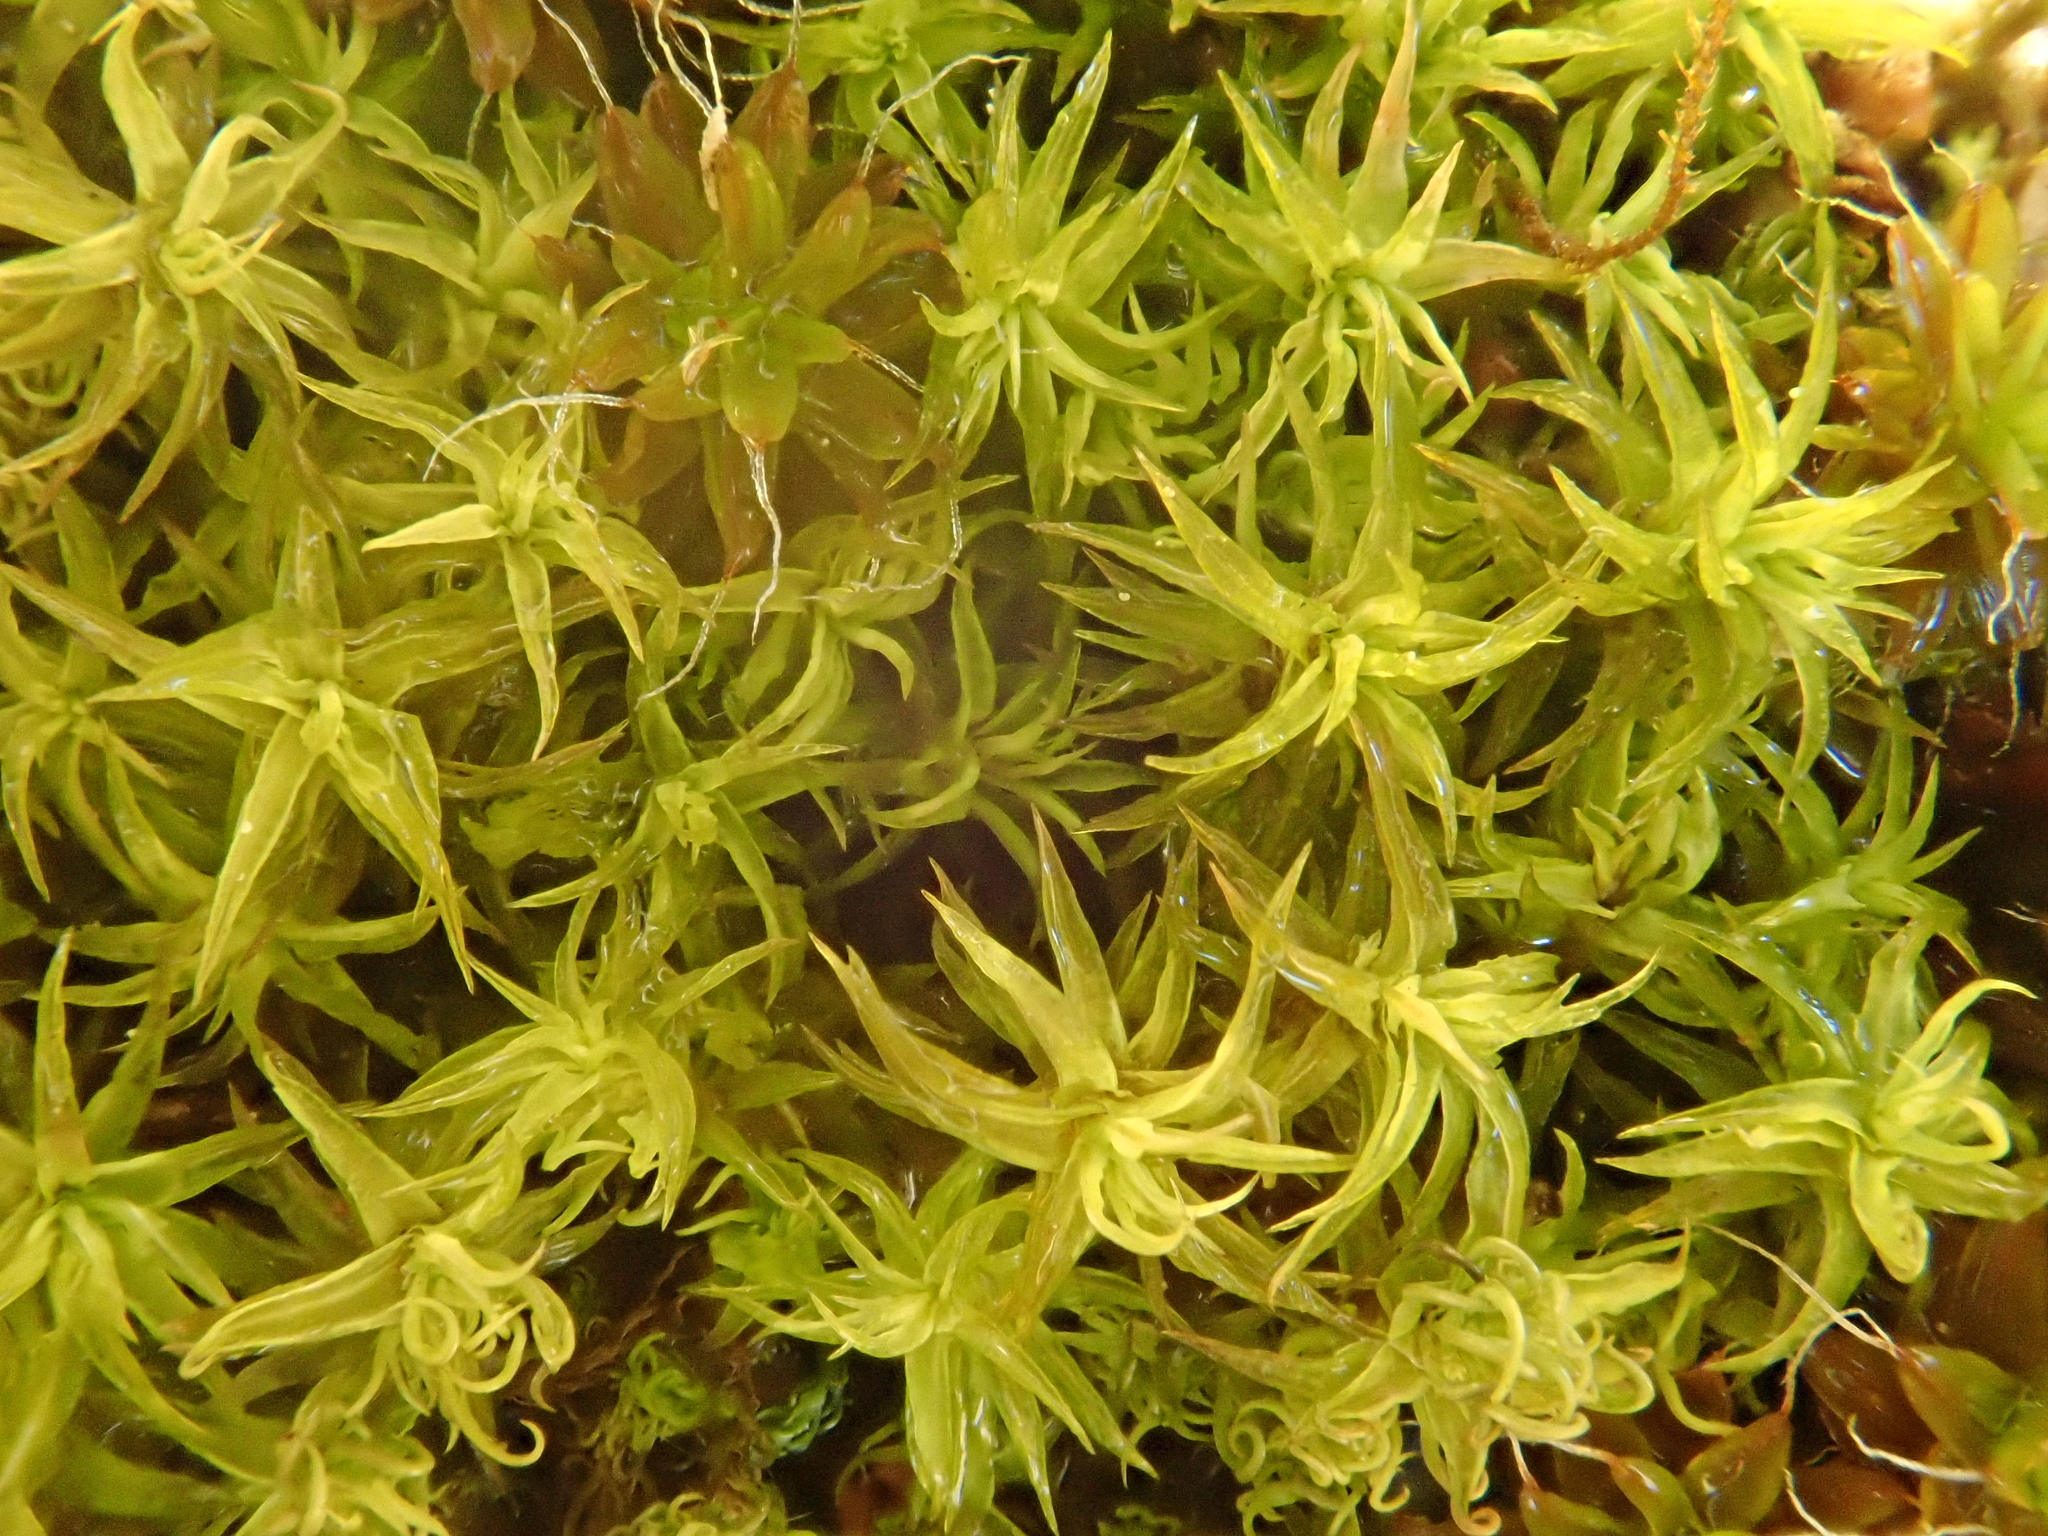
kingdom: Plantae
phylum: Bryophyta
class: Bryopsida
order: Pottiales
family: Pottiaceae
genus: Pleurochaete
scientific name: Pleurochaete squarrosa
